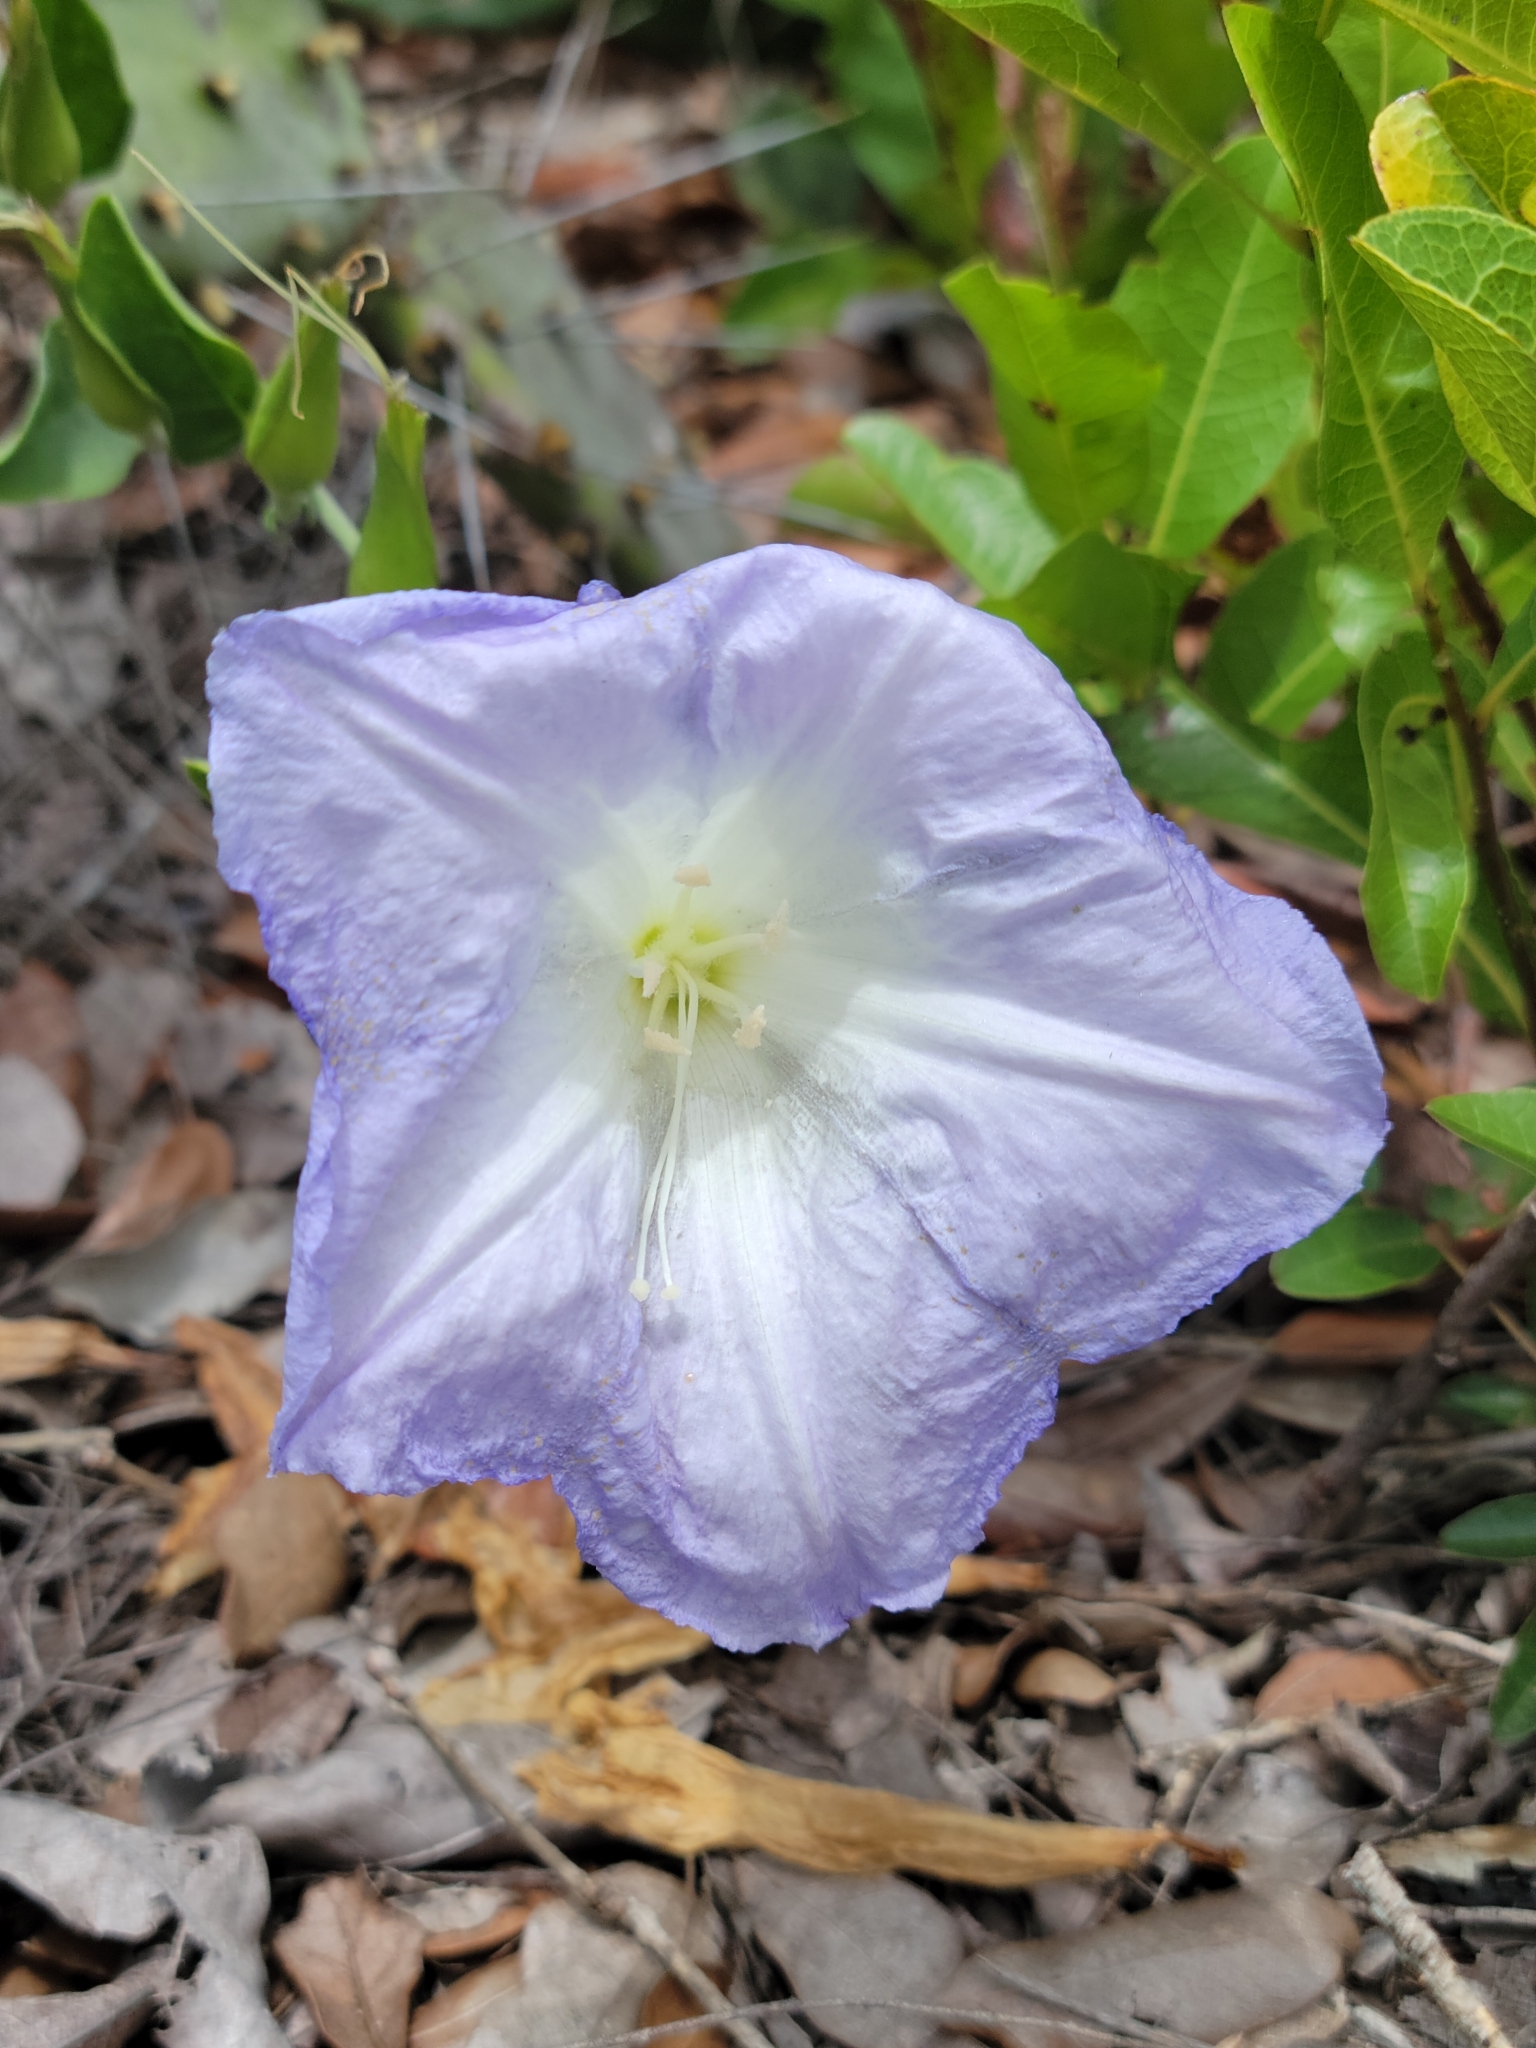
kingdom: Plantae
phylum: Tracheophyta
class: Magnoliopsida
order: Solanales
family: Convolvulaceae
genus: Bonamia
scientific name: Bonamia grandiflora
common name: Florida bonamia
